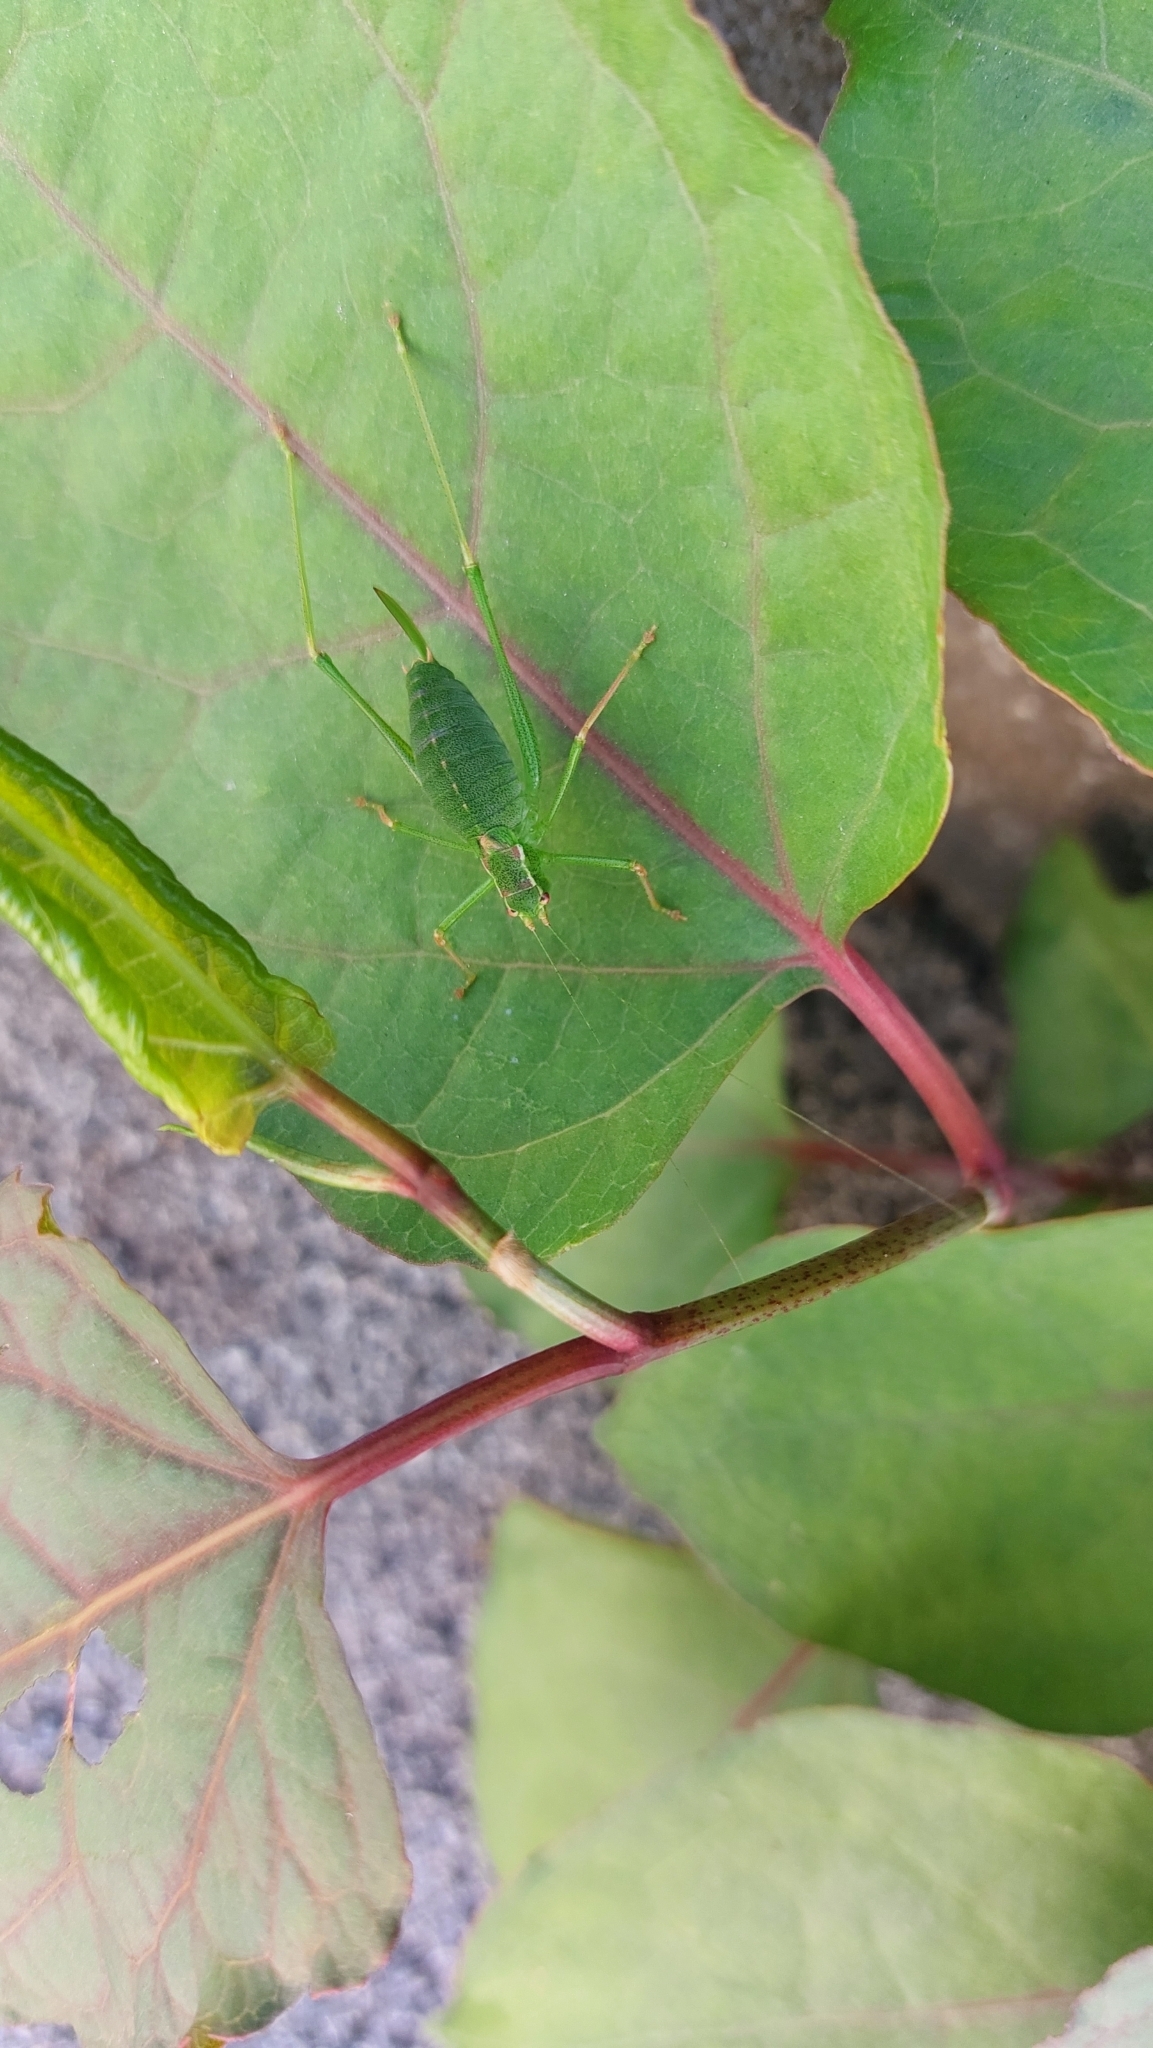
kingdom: Animalia
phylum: Arthropoda
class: Insecta
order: Orthoptera
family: Tettigoniidae
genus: Leptophyes
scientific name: Leptophyes punctatissima
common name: Speckled bush-cricket
